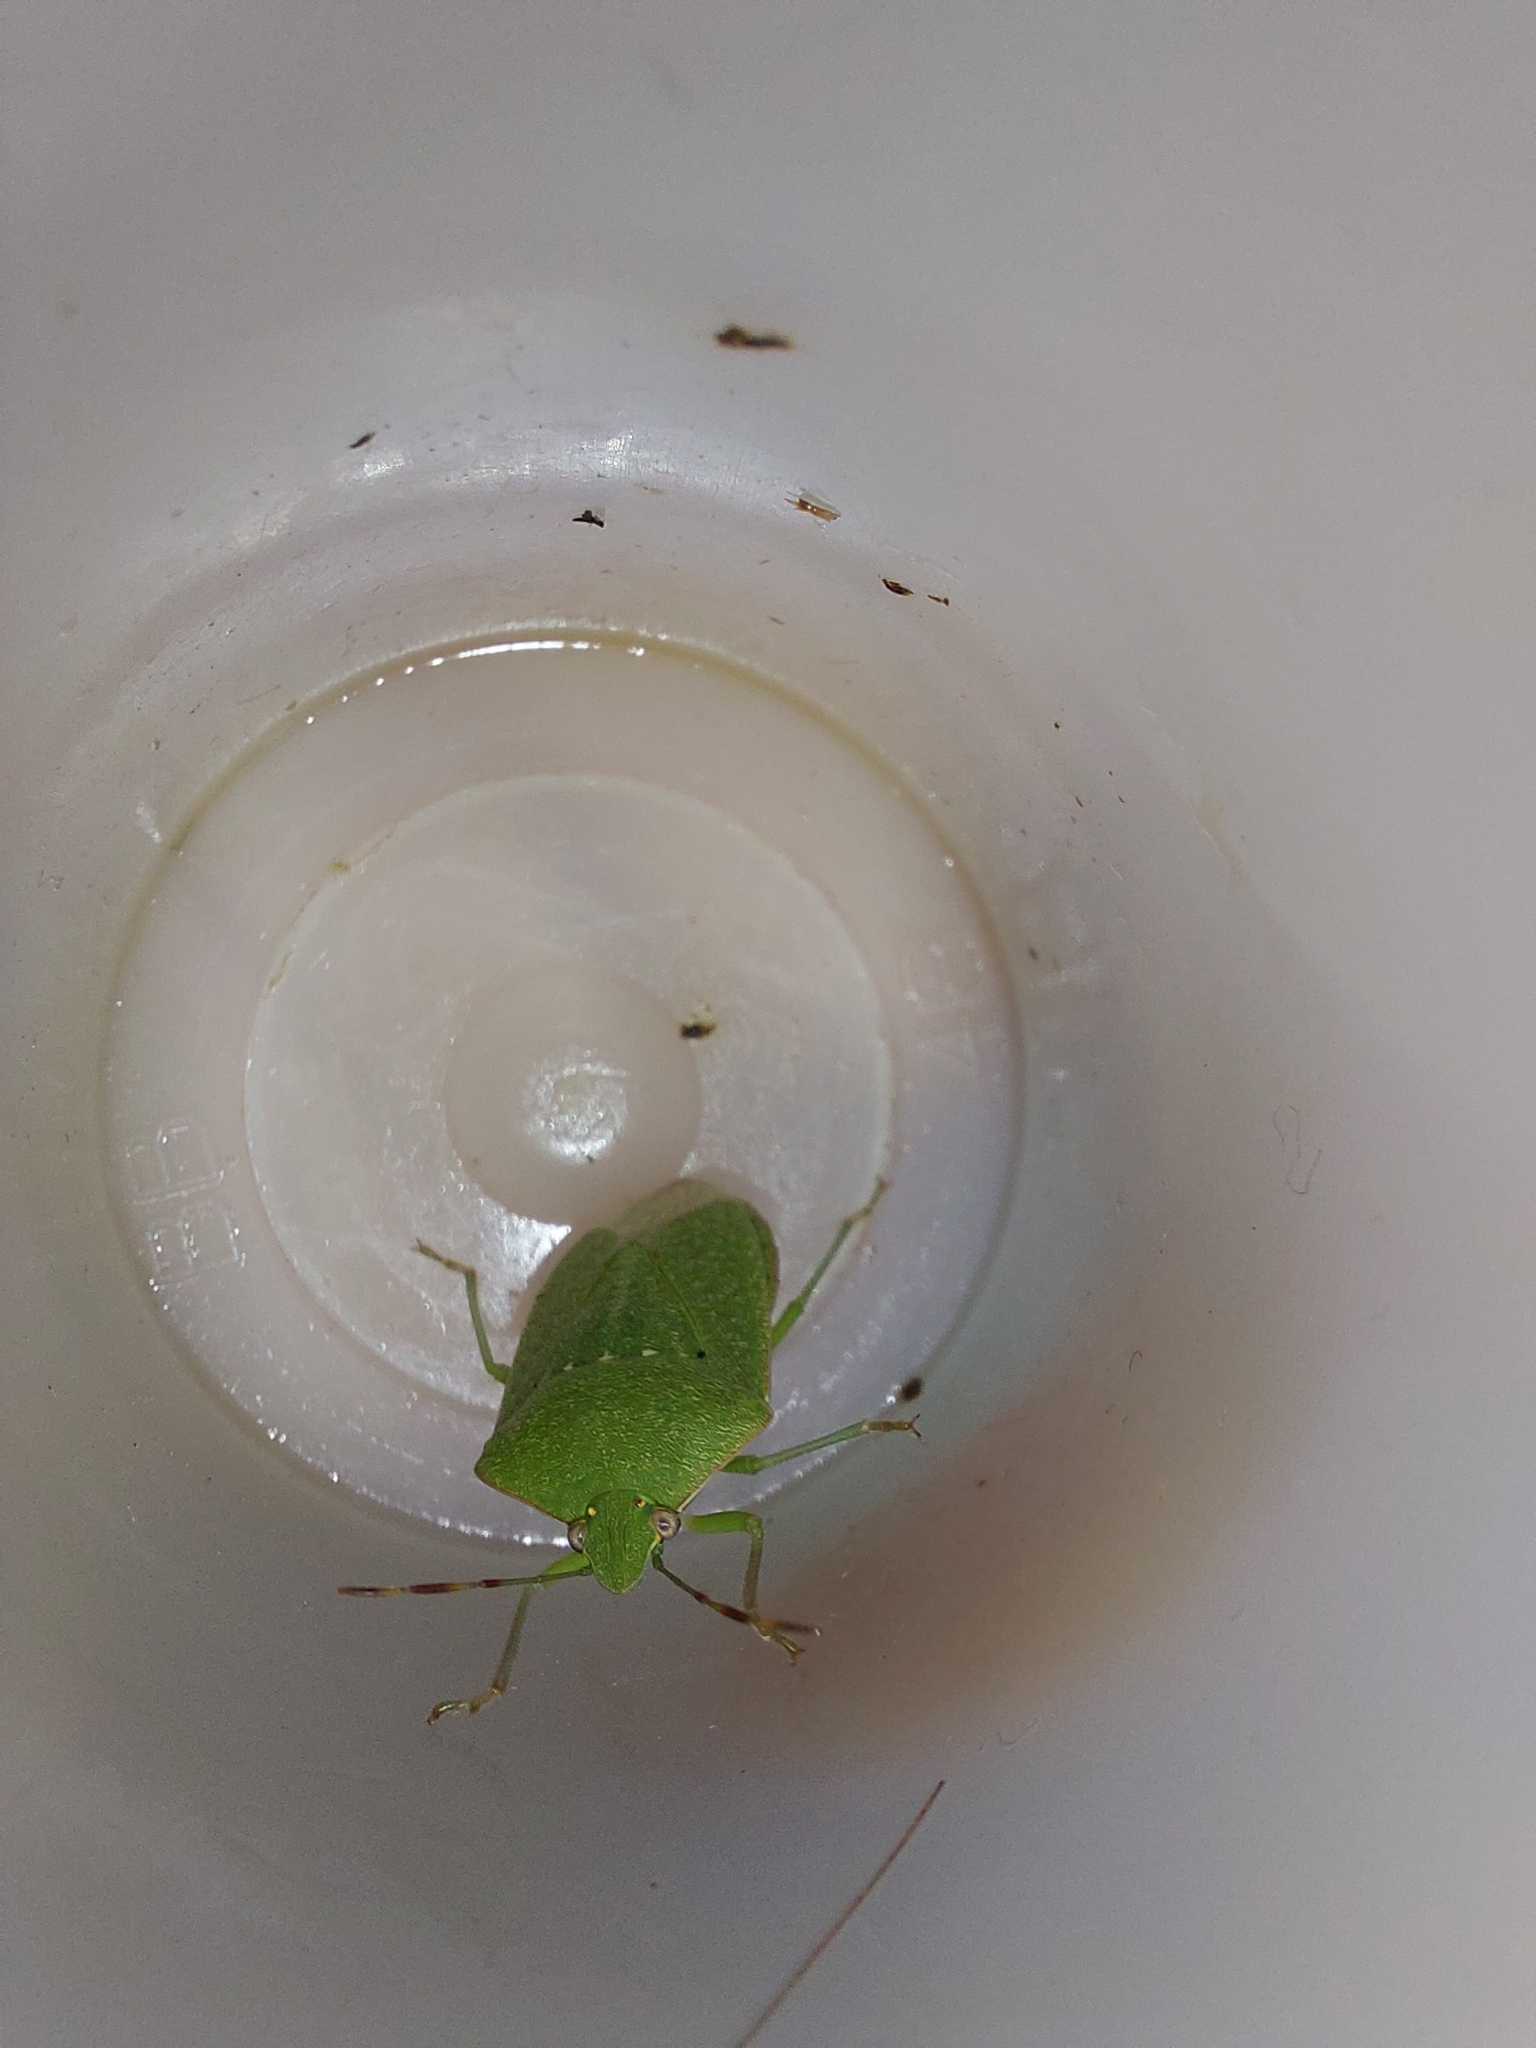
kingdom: Animalia
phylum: Arthropoda
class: Insecta
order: Hemiptera
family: Pentatomidae
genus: Nezara
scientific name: Nezara viridula
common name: Southern green stink bug
